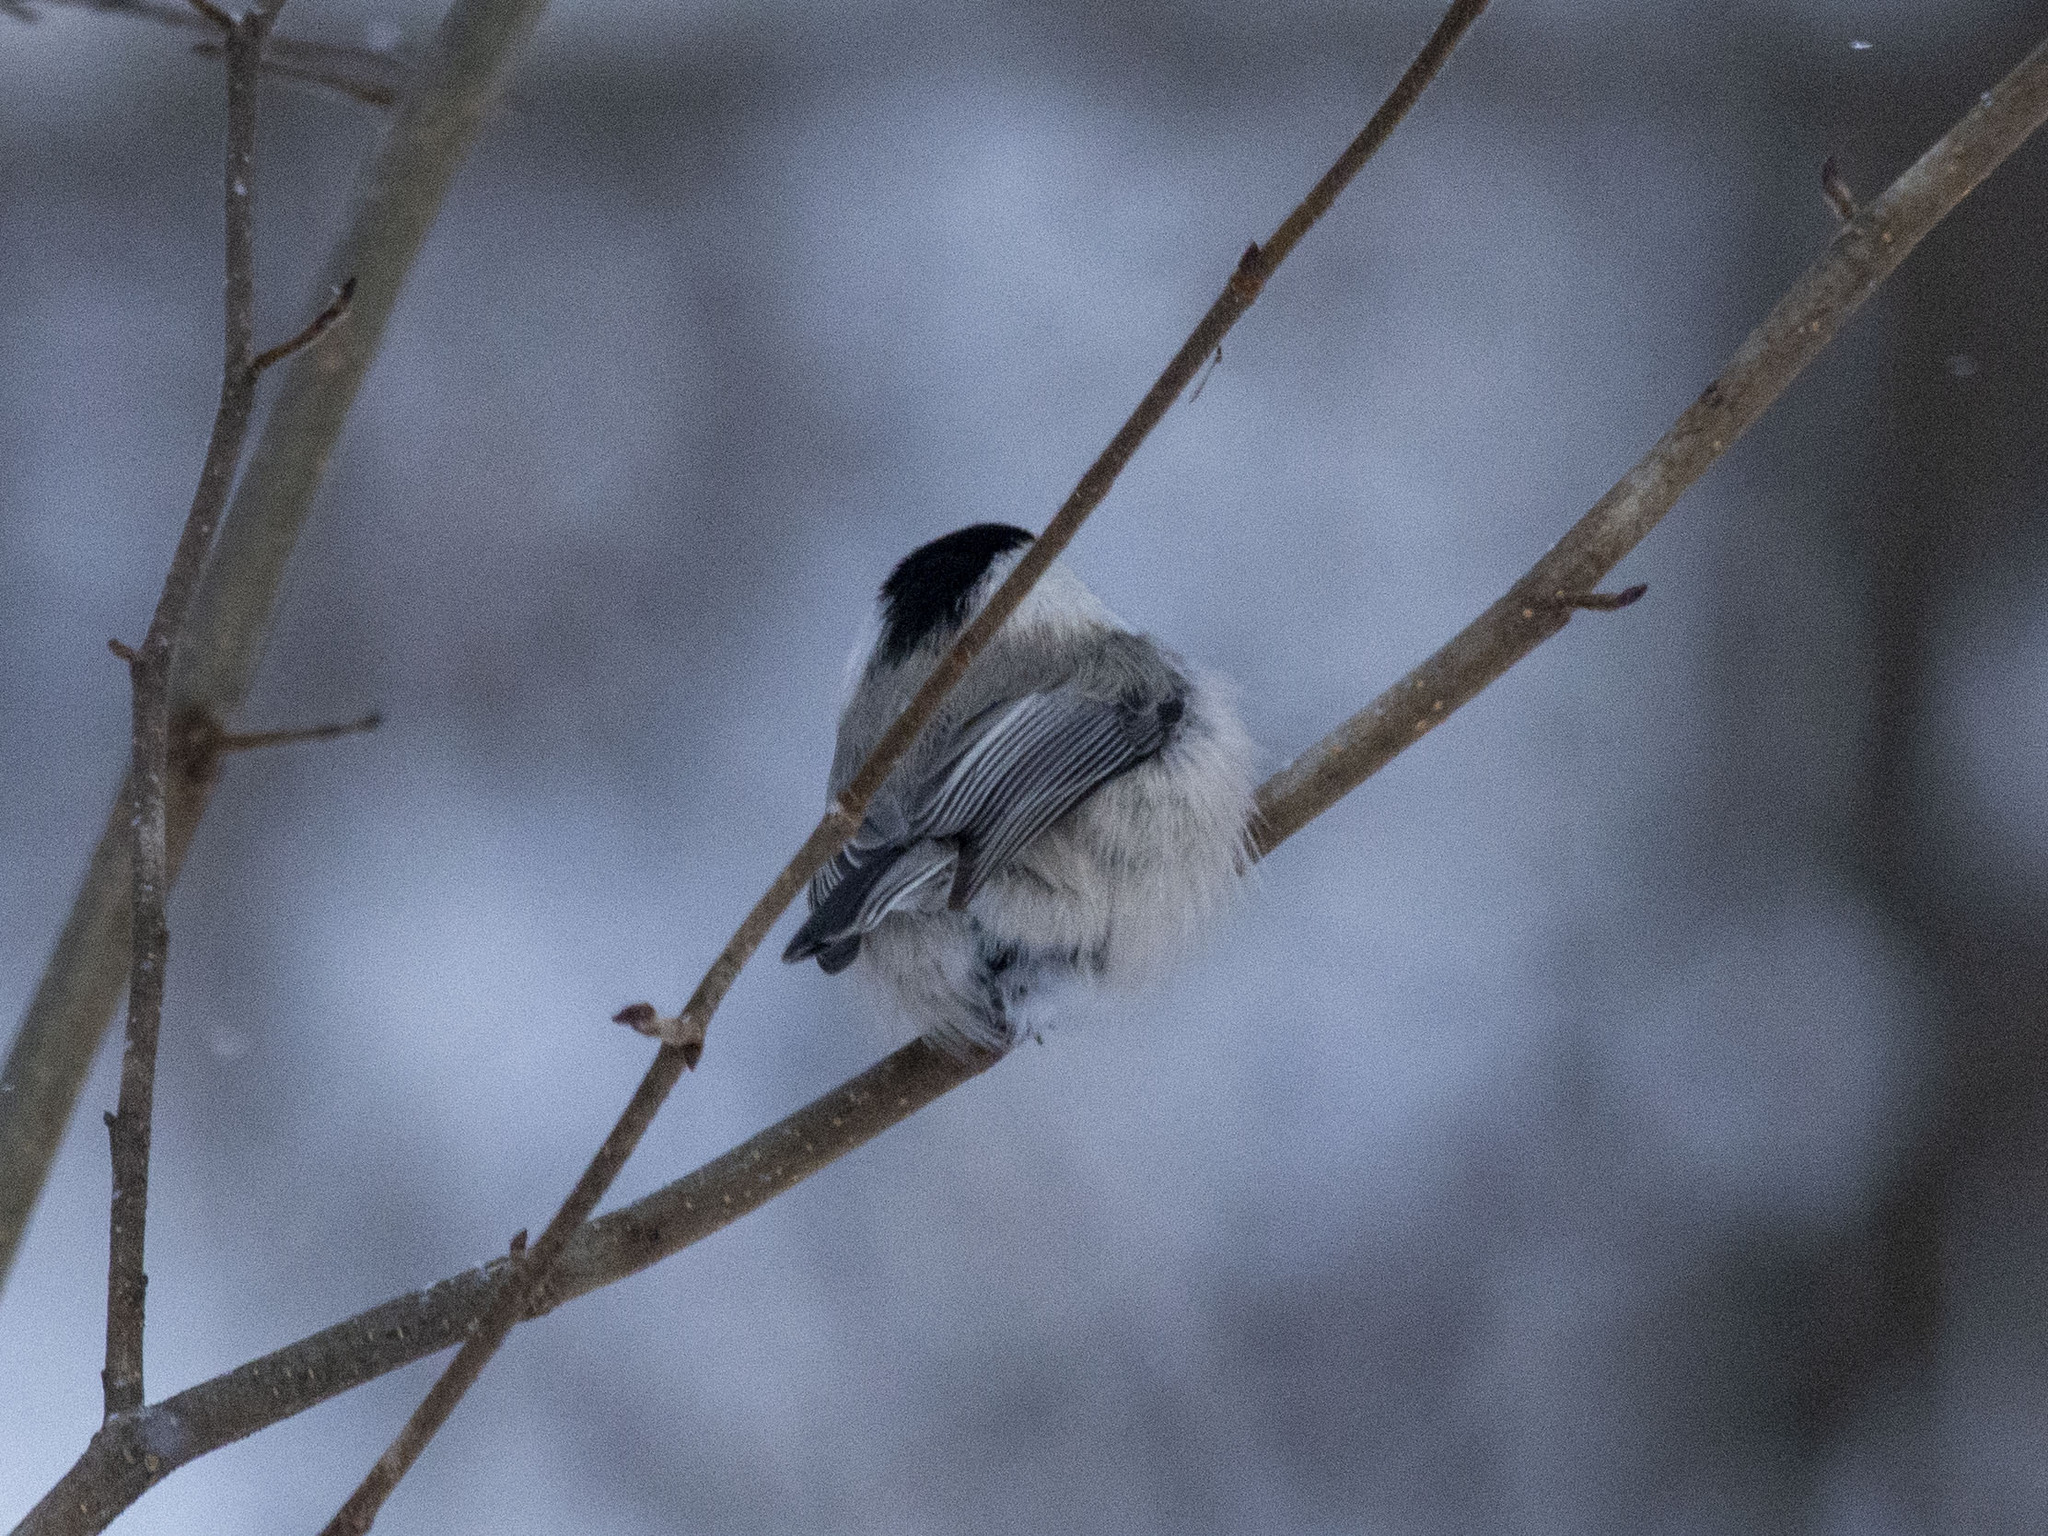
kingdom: Animalia
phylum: Chordata
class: Aves
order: Passeriformes
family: Paridae
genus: Poecile
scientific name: Poecile montanus
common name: Willow tit
